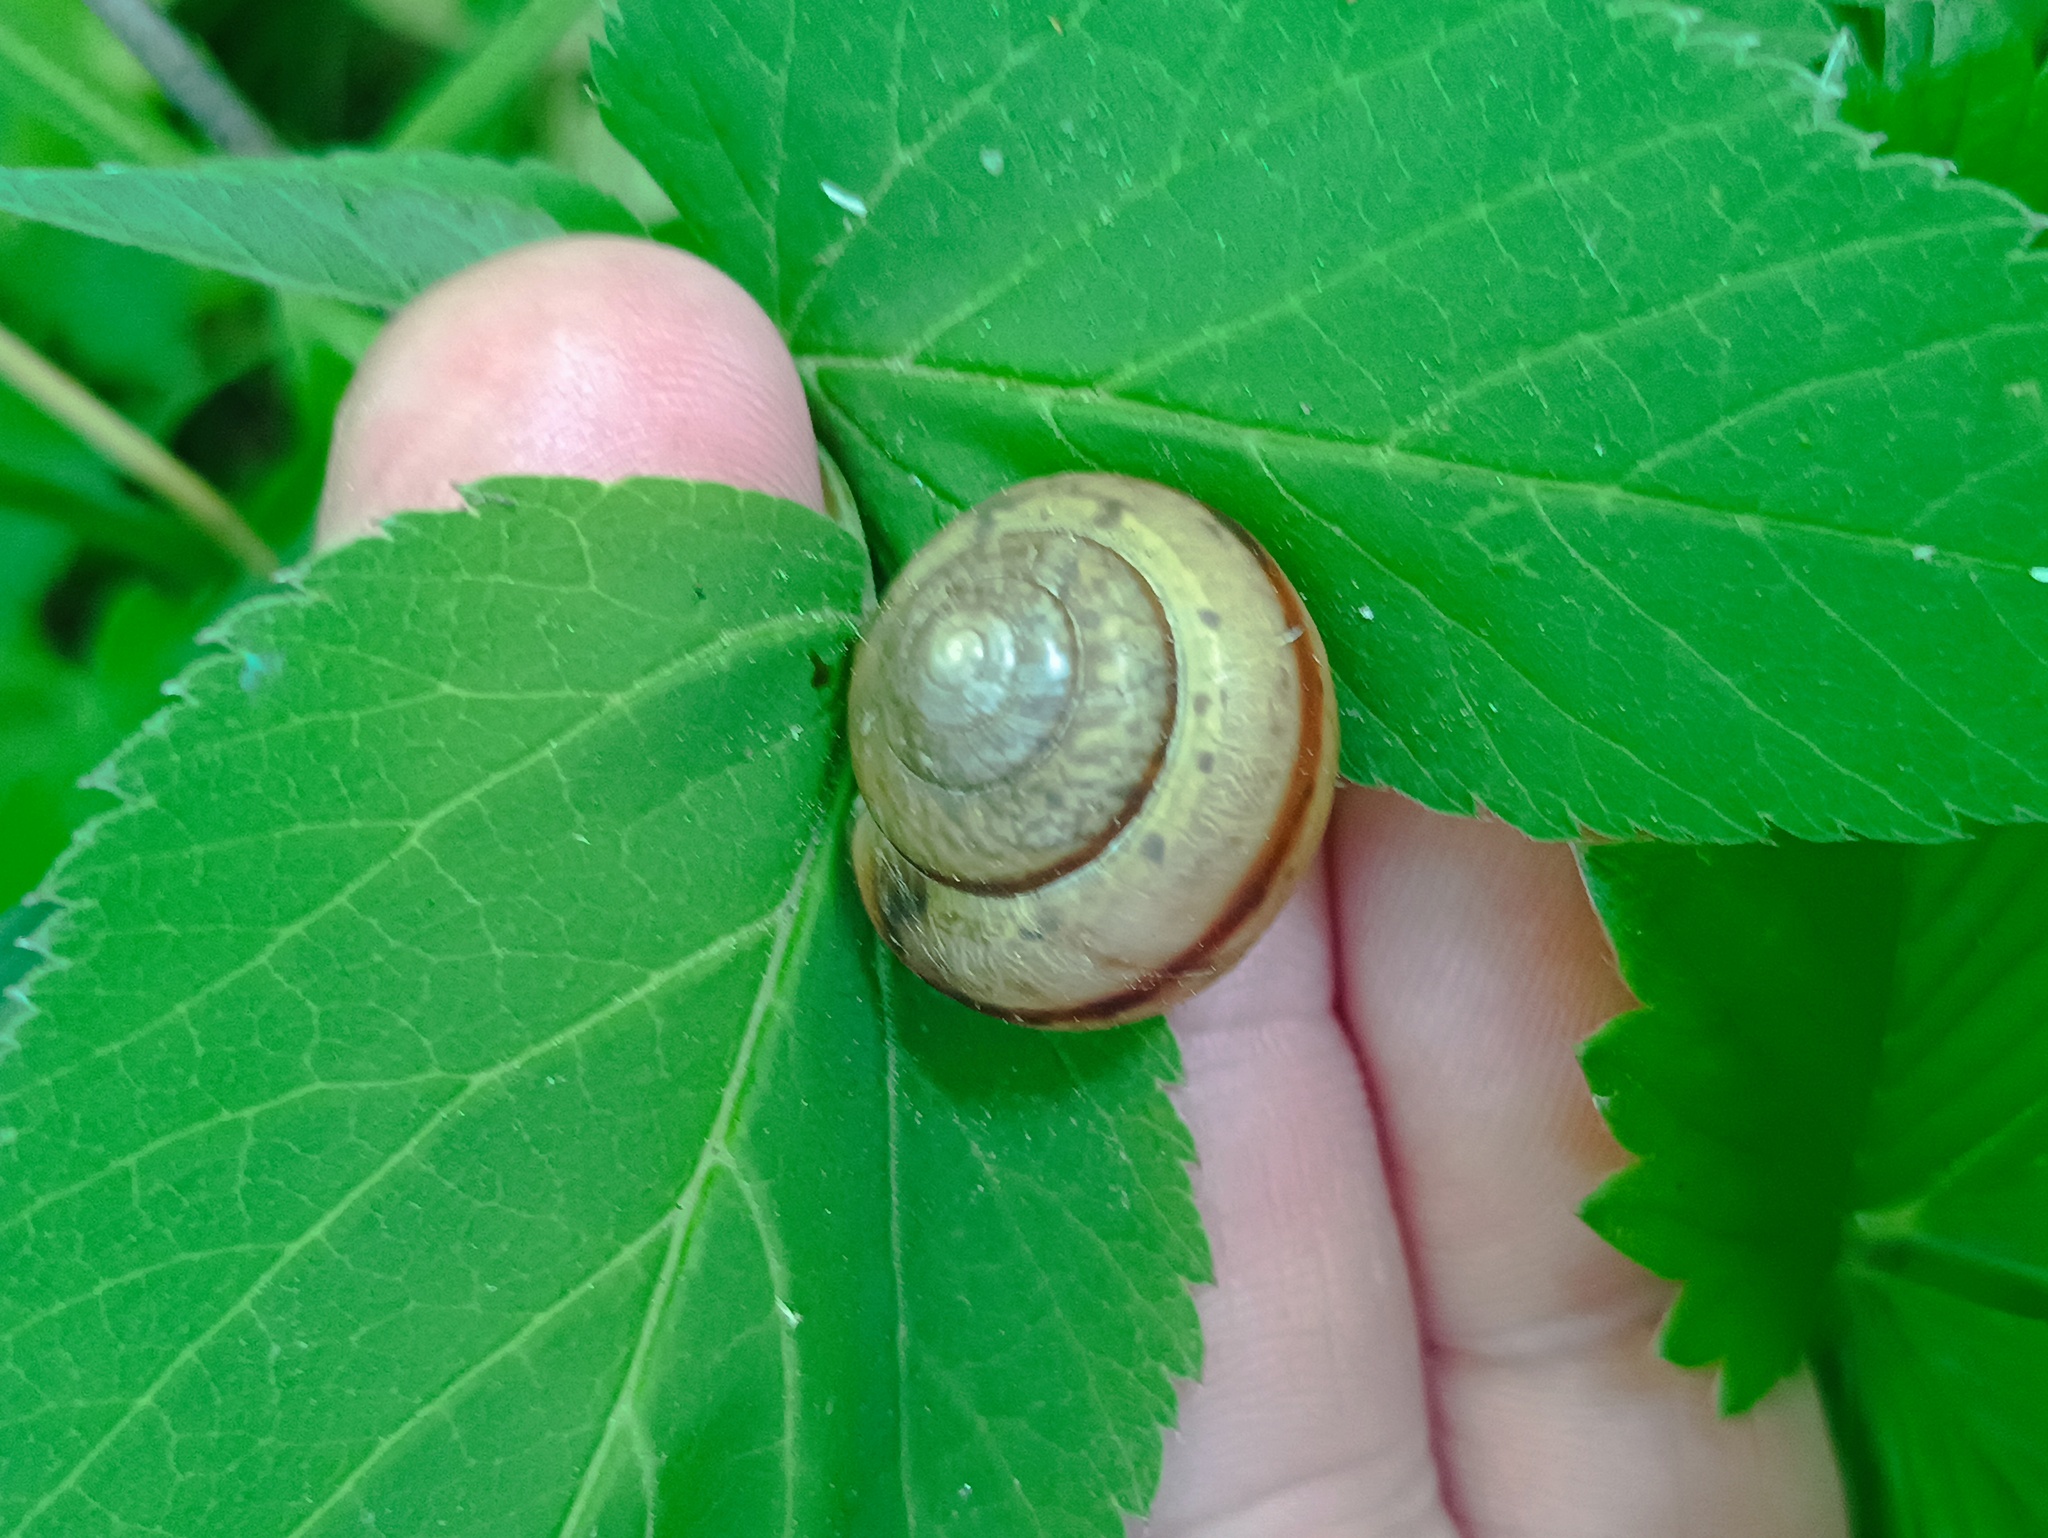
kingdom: Animalia
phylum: Mollusca
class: Gastropoda
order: Stylommatophora
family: Camaenidae
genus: Fruticicola
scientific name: Fruticicola fruticum
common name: Bush snail
